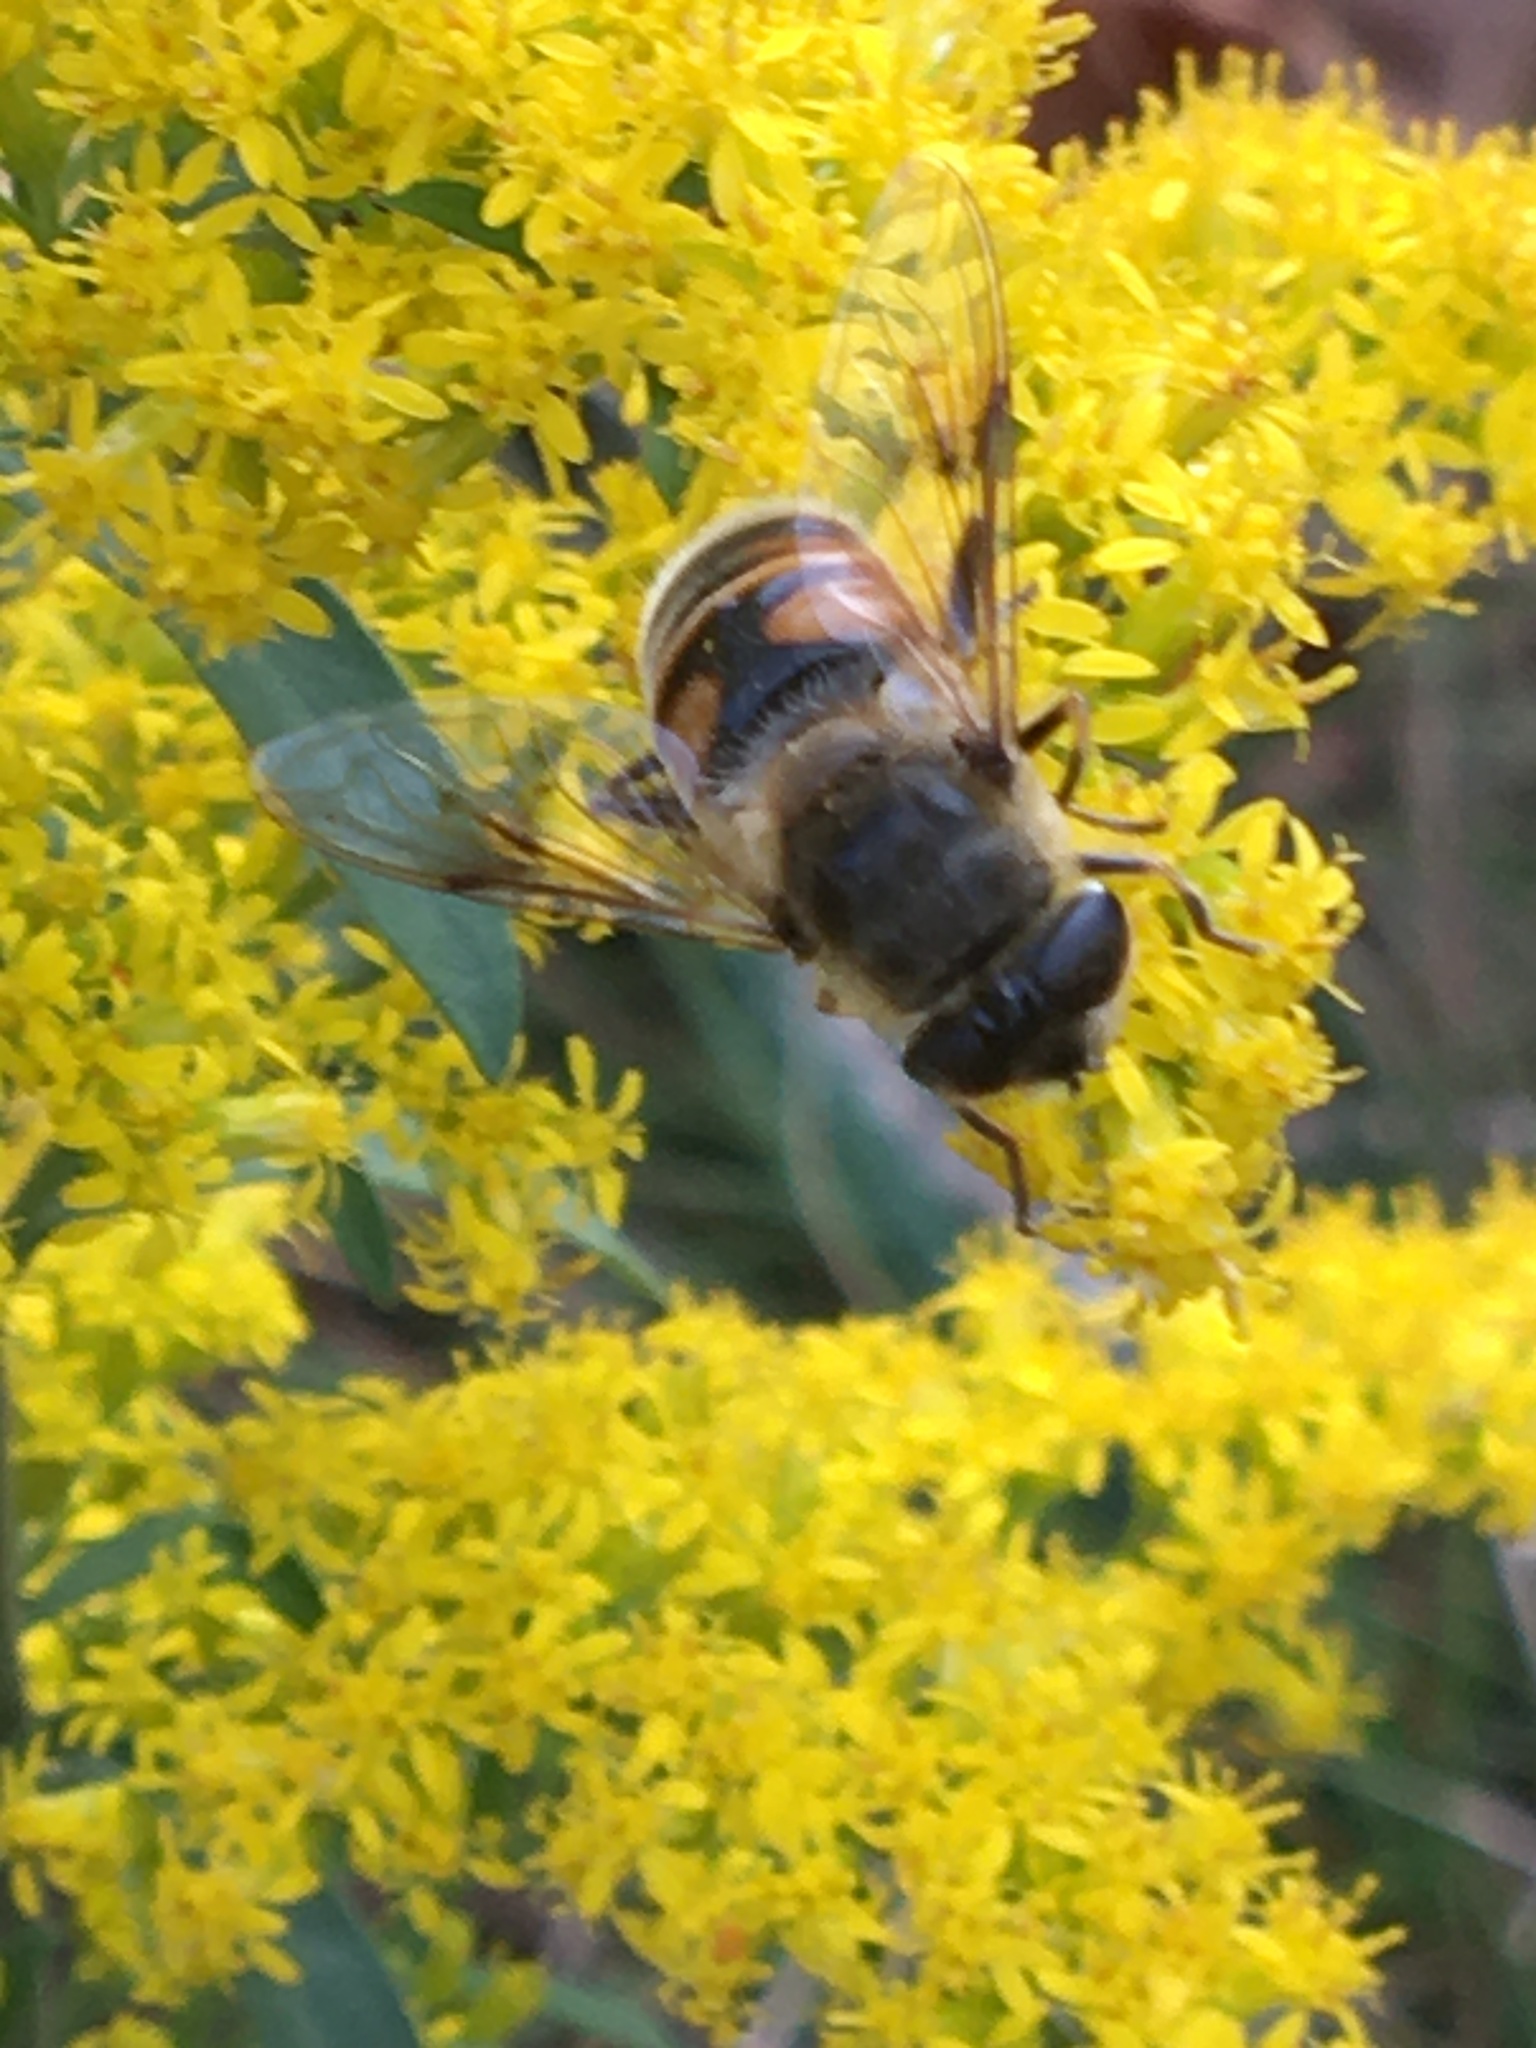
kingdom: Animalia
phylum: Arthropoda
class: Insecta
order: Diptera
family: Syrphidae
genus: Eristalis
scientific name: Eristalis tenax
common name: Drone fly
